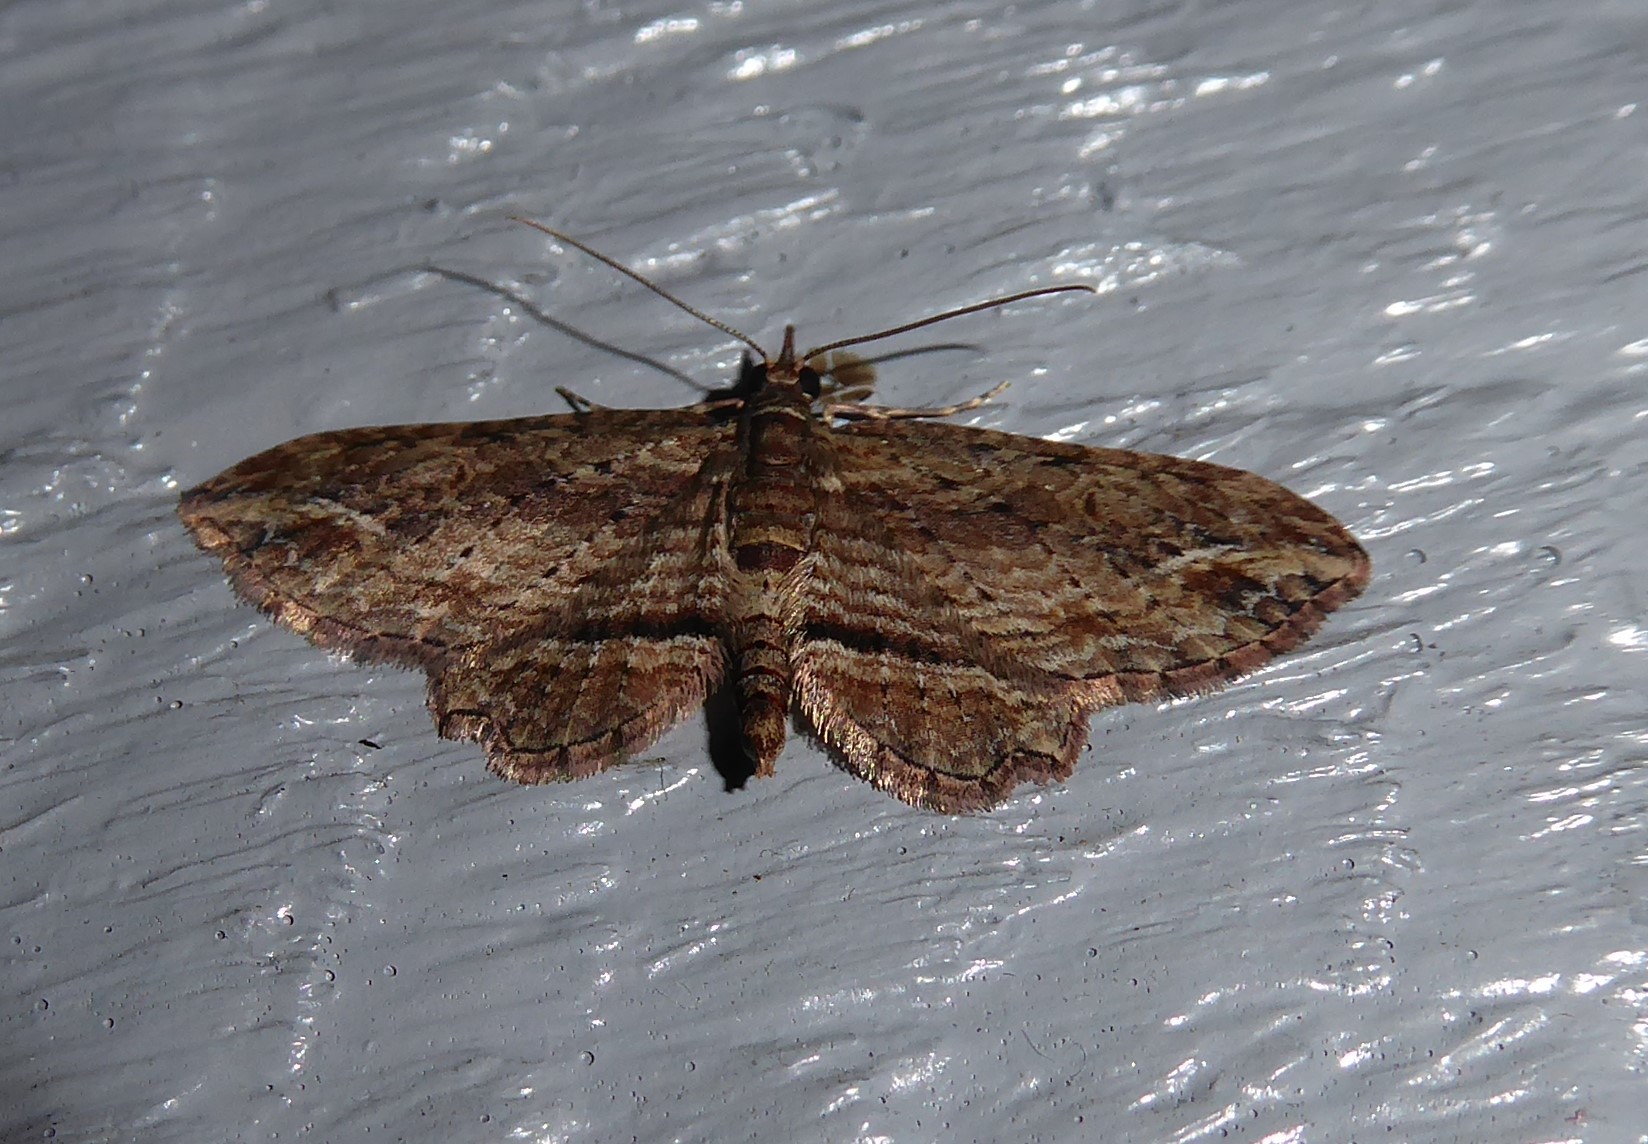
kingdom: Animalia
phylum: Arthropoda
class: Insecta
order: Lepidoptera
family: Geometridae
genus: Chloroclystis
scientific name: Chloroclystis filata
